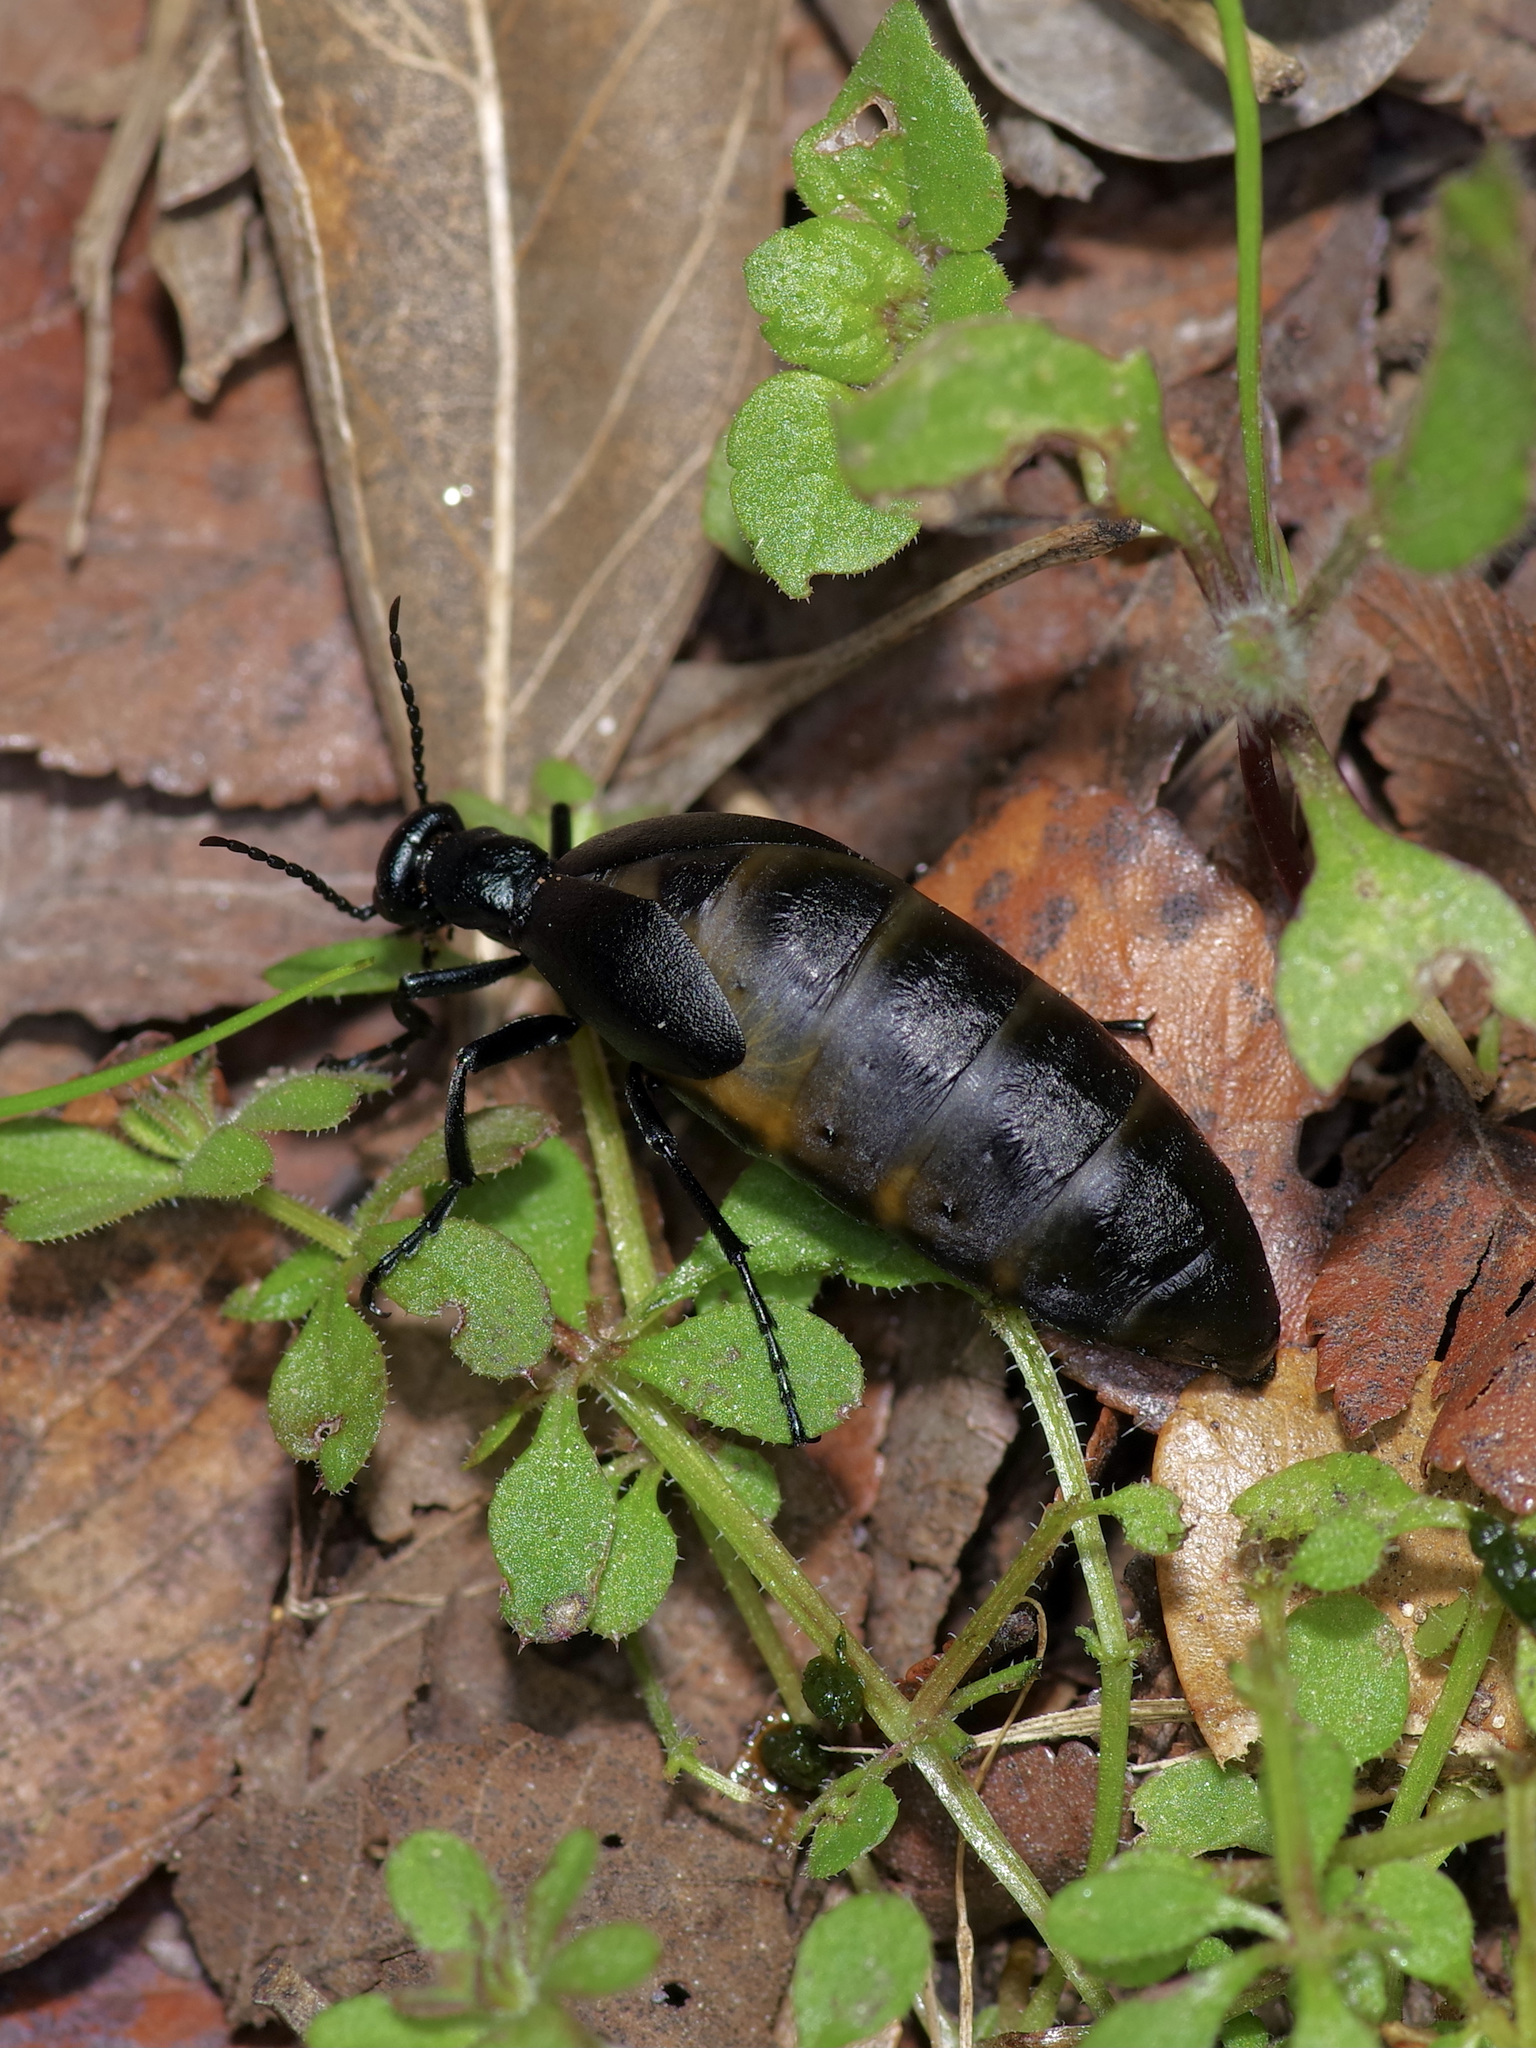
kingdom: Animalia
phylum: Arthropoda
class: Insecta
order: Coleoptera
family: Meloidae
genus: Meloe
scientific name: Meloe americanus
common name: Buttercup oil beetle
